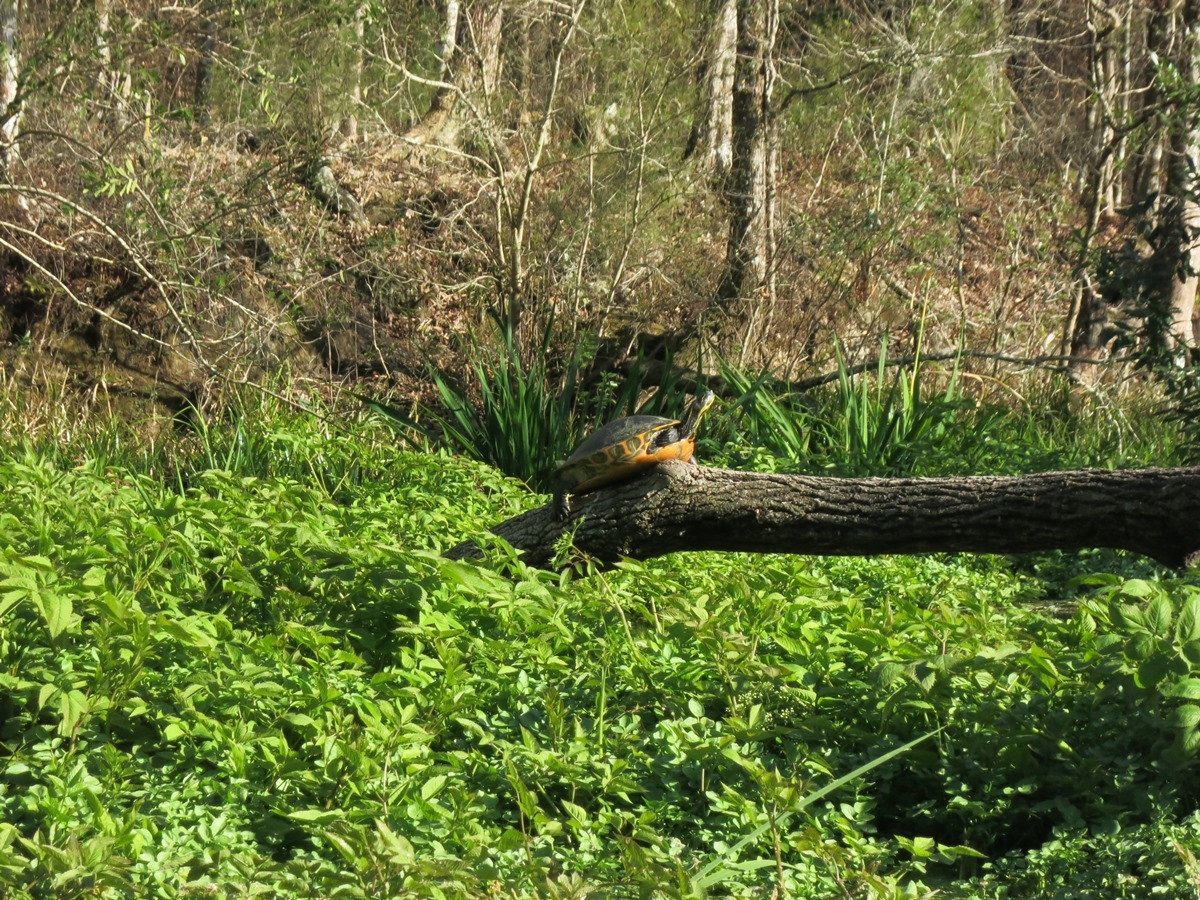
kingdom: Animalia
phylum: Chordata
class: Testudines
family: Emydidae
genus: Pseudemys
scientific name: Pseudemys concinna
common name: Eastern river cooter
